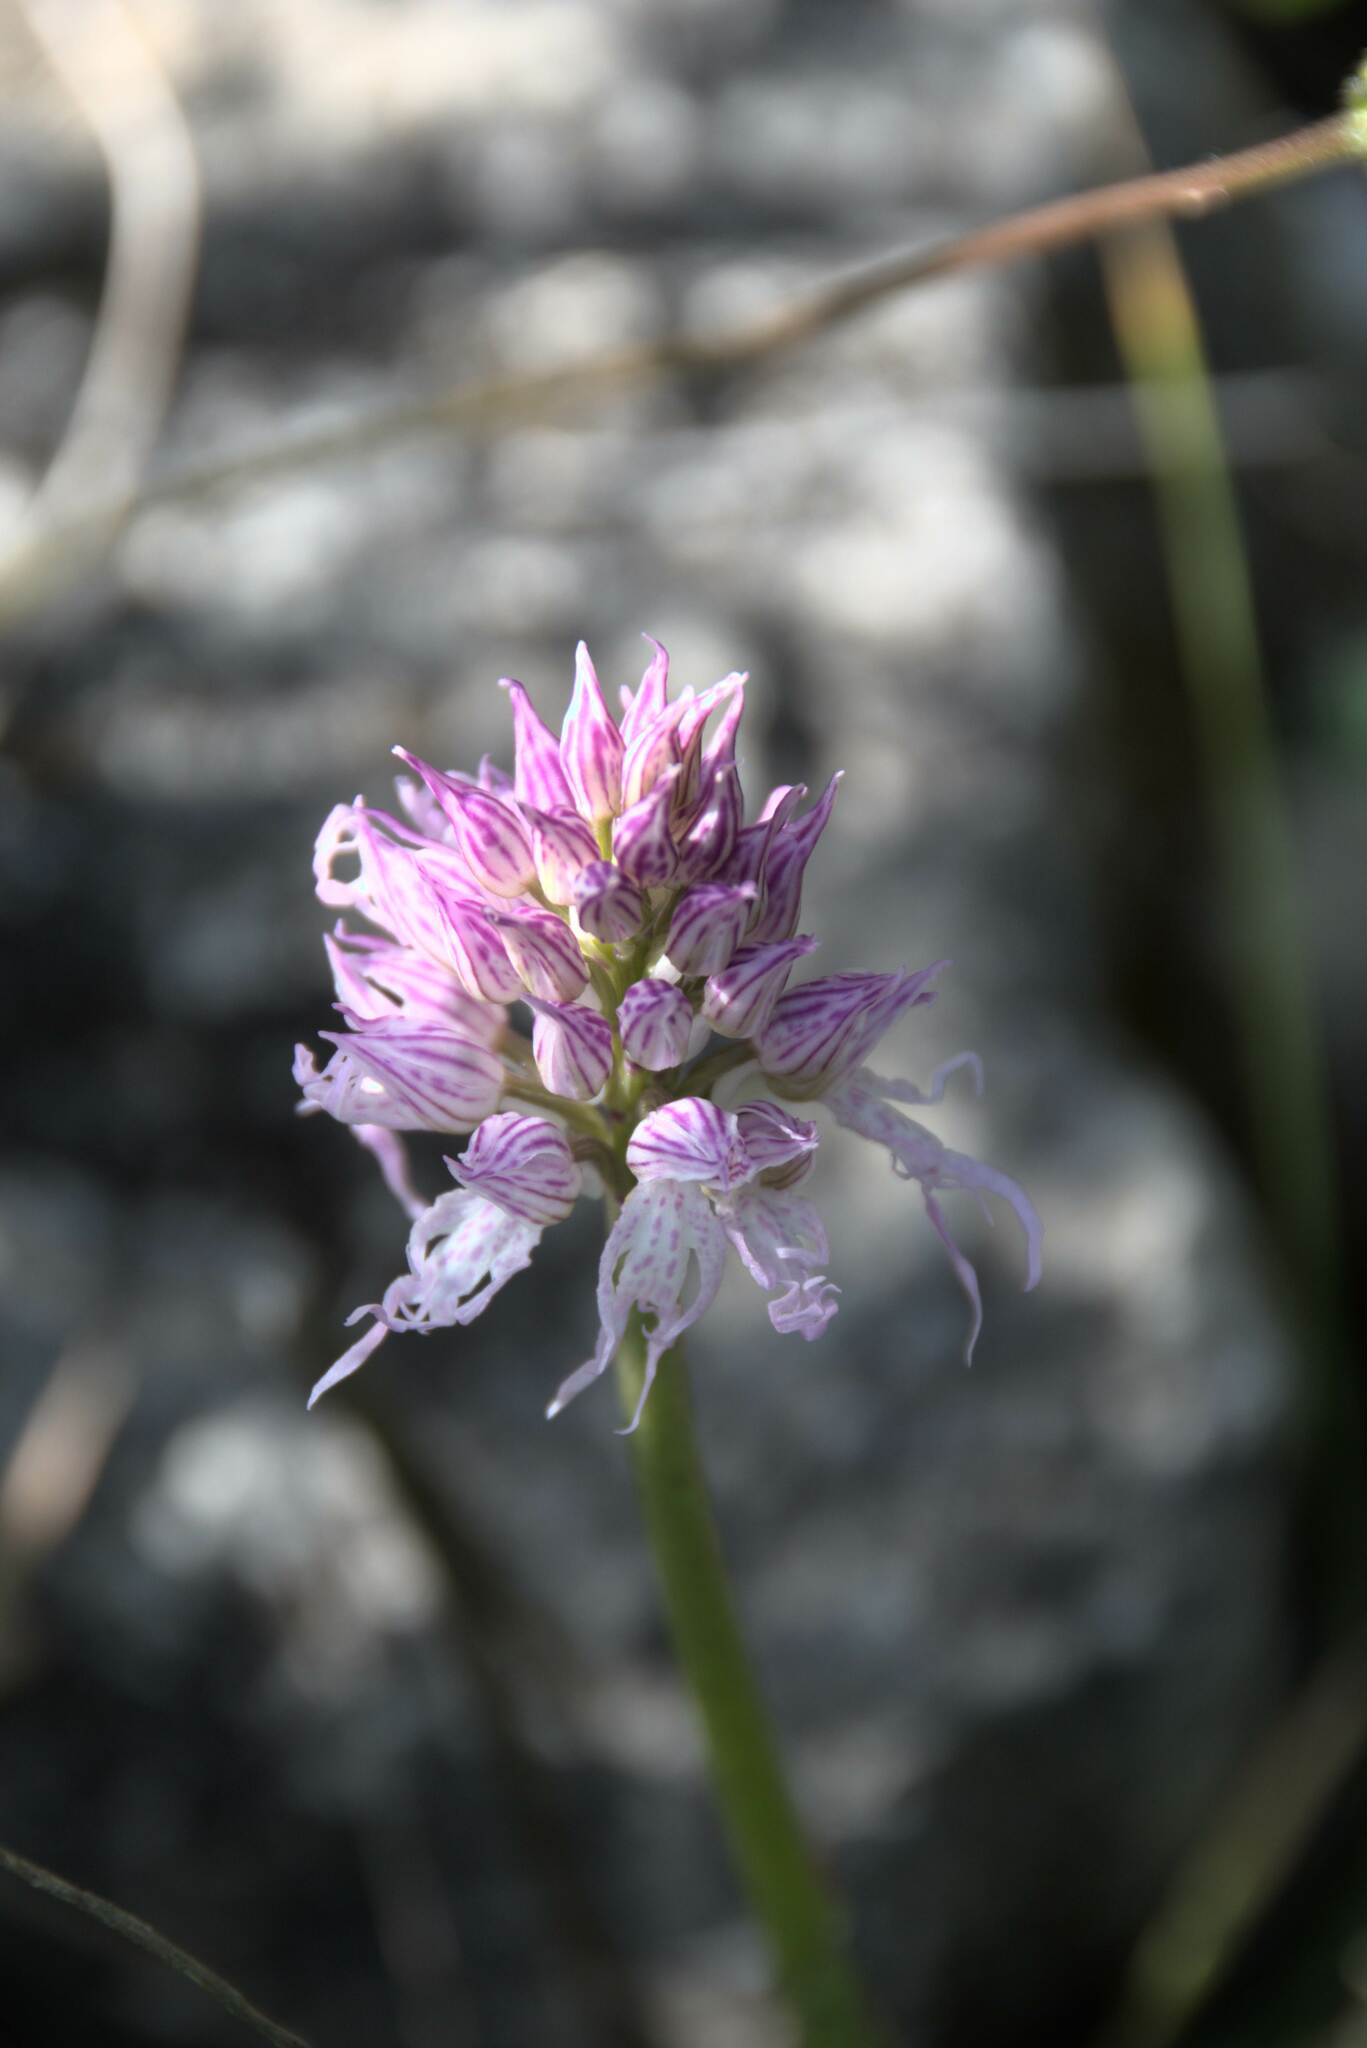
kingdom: Plantae
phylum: Tracheophyta
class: Liliopsida
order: Asparagales
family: Orchidaceae
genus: Orchis
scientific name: Orchis italica
